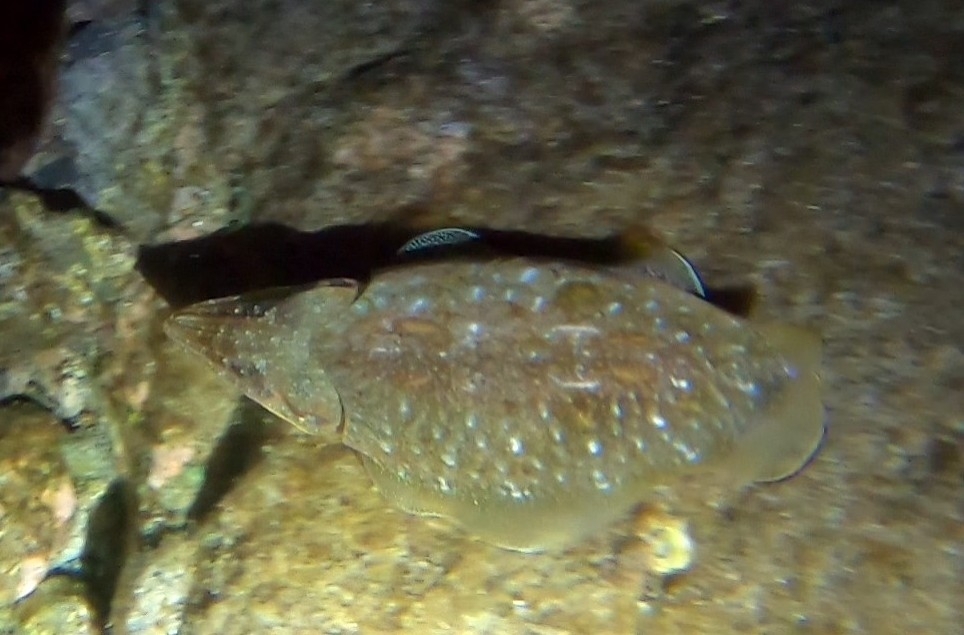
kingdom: Animalia
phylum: Mollusca
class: Cephalopoda
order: Sepiida
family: Sepiidae
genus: Sepia
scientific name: Sepia officinalis
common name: Common cuttlefish
